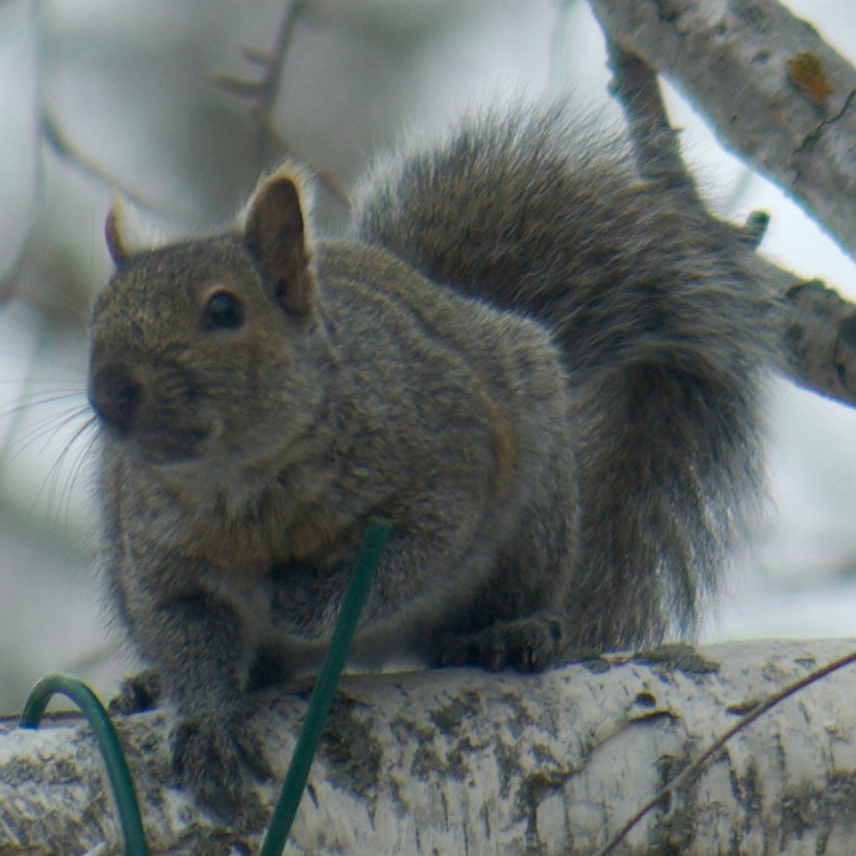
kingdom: Animalia
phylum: Chordata
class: Mammalia
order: Rodentia
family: Sciuridae
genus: Sciurus
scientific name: Sciurus carolinensis
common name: Eastern gray squirrel
